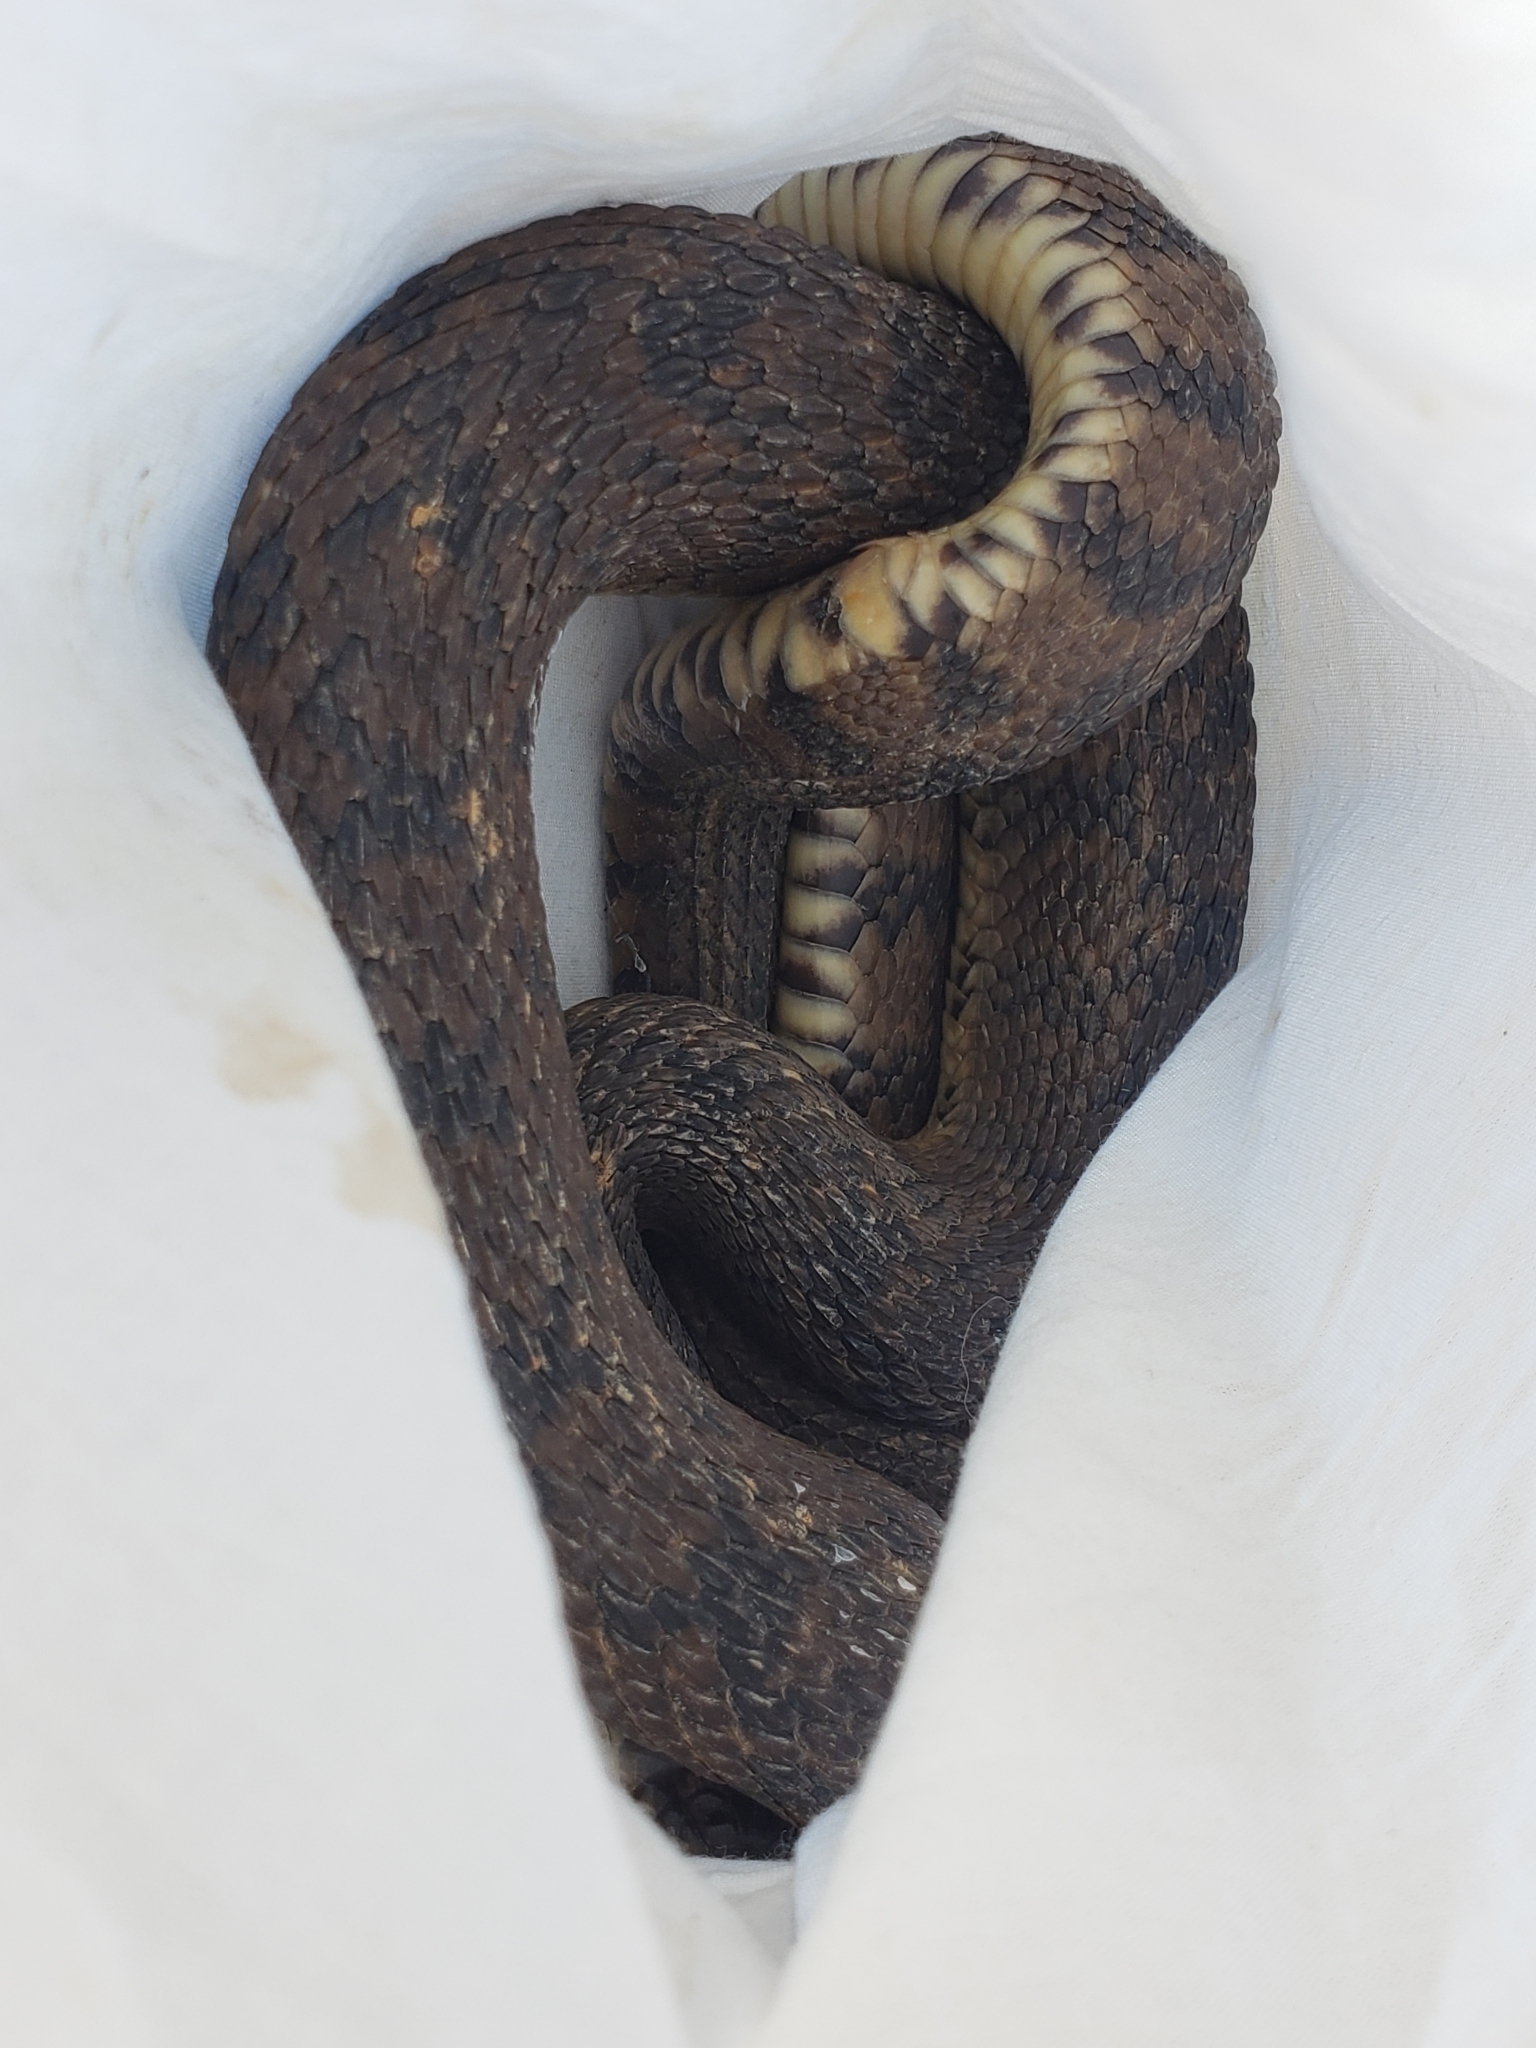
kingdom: Animalia
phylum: Chordata
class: Squamata
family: Colubridae
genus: Nerodia
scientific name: Nerodia rhombifer
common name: Diamondback water snake
